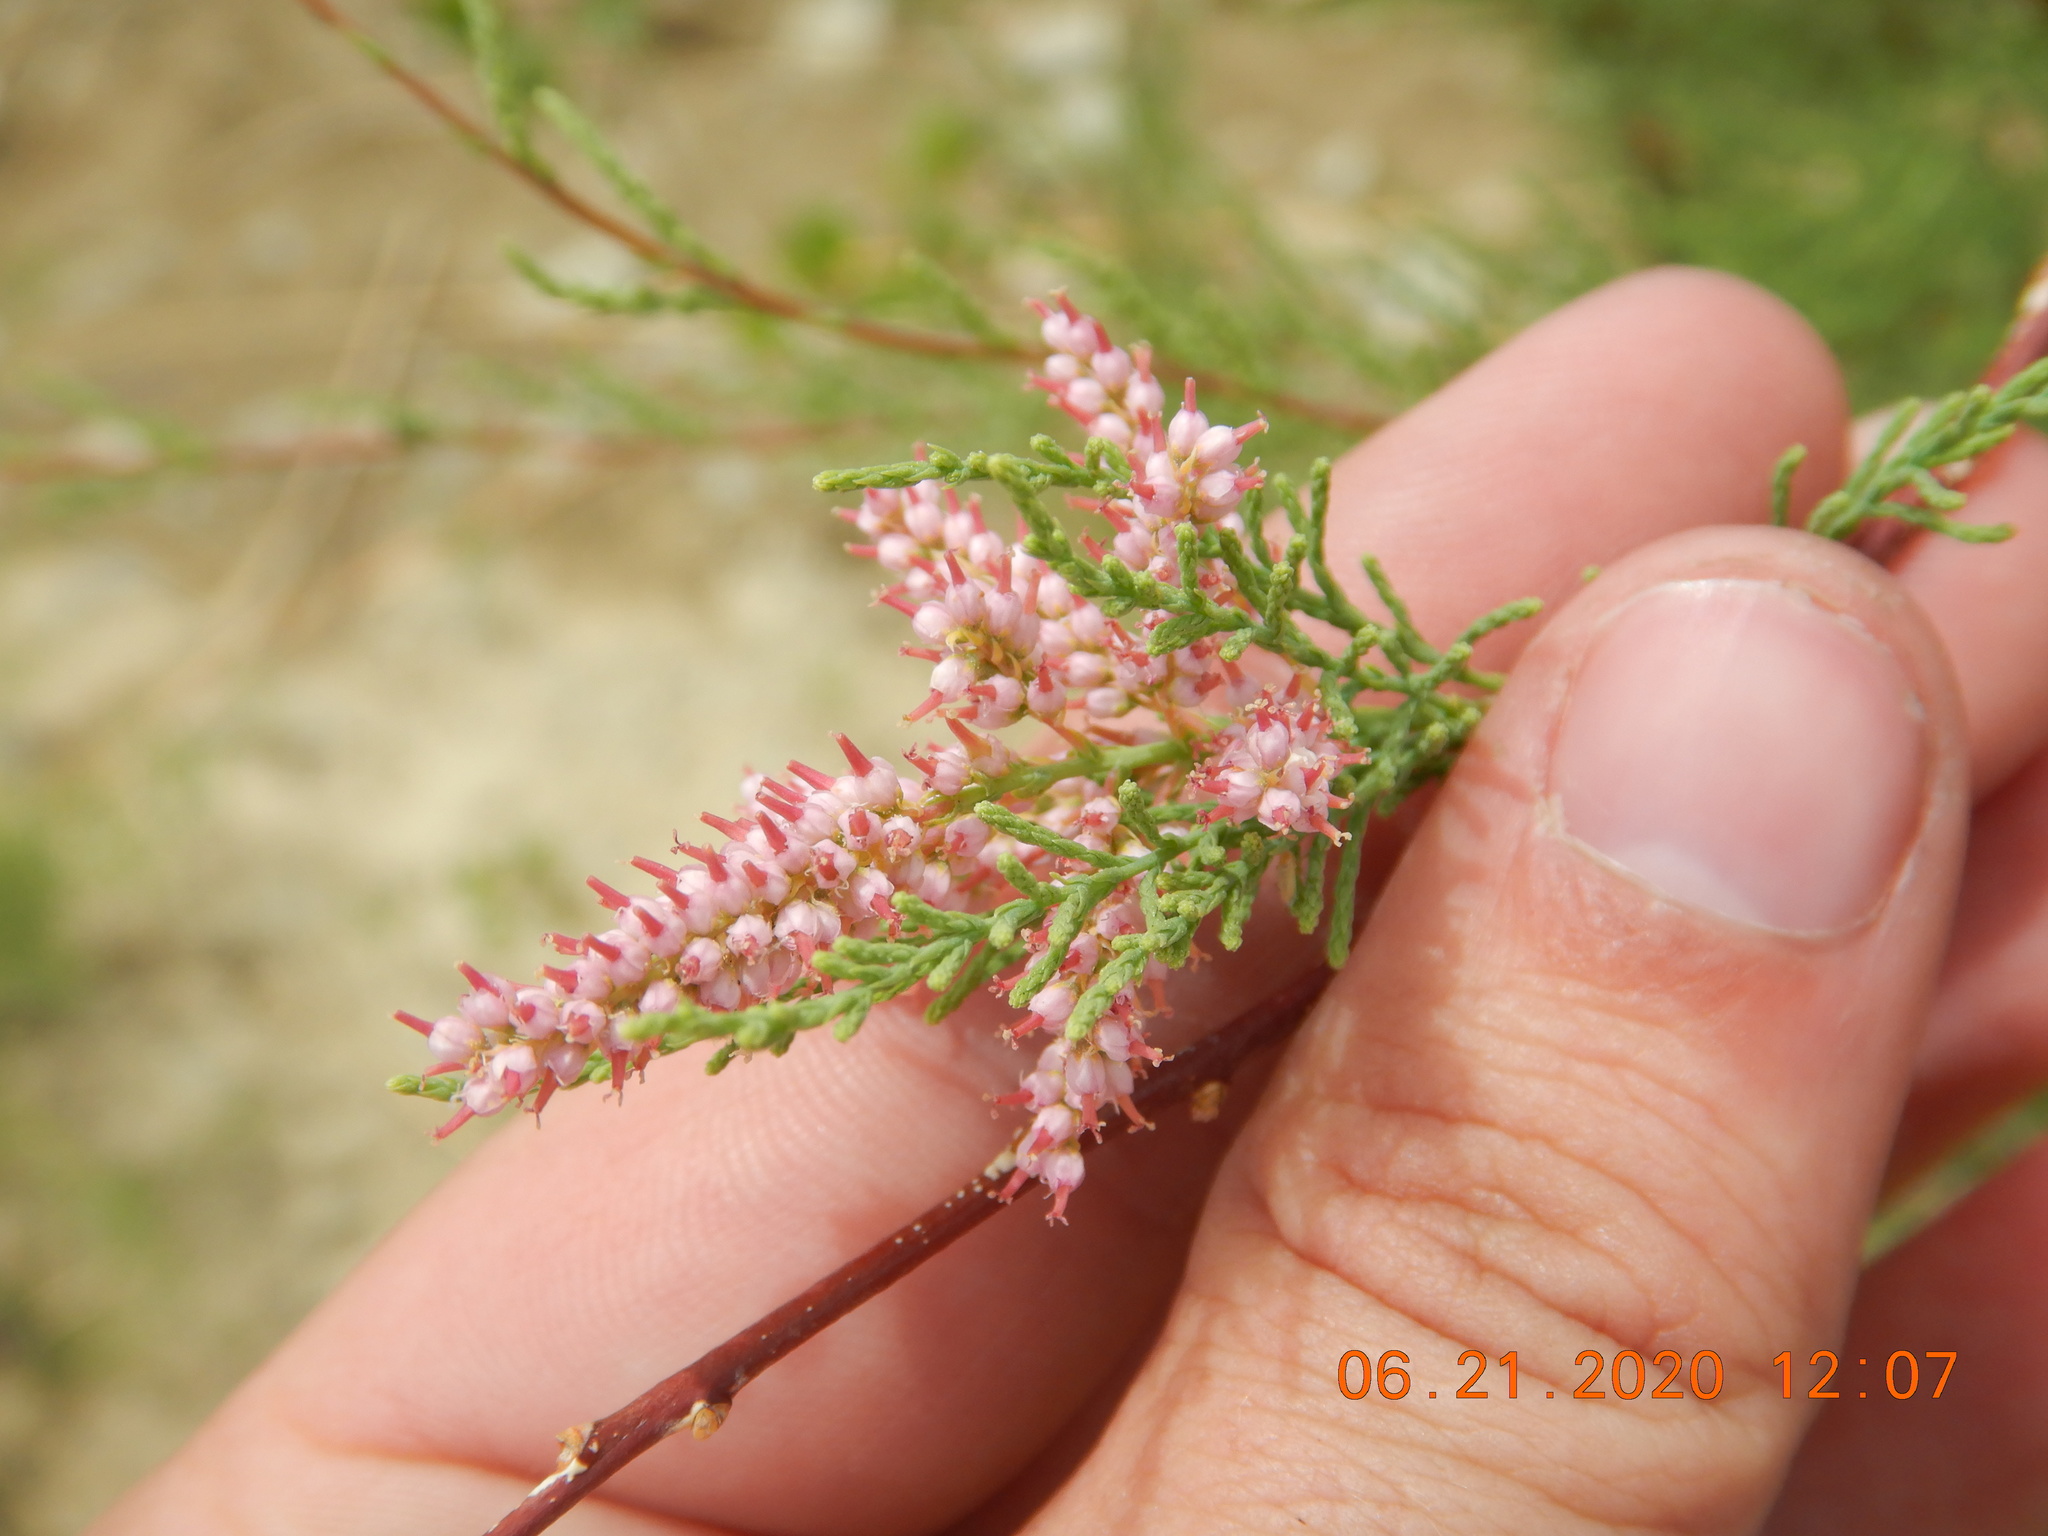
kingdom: Plantae
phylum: Tracheophyta
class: Magnoliopsida
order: Caryophyllales
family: Tamaricaceae
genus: Tamarix
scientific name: Tamarix ramosissima
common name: Pink tamarisk
